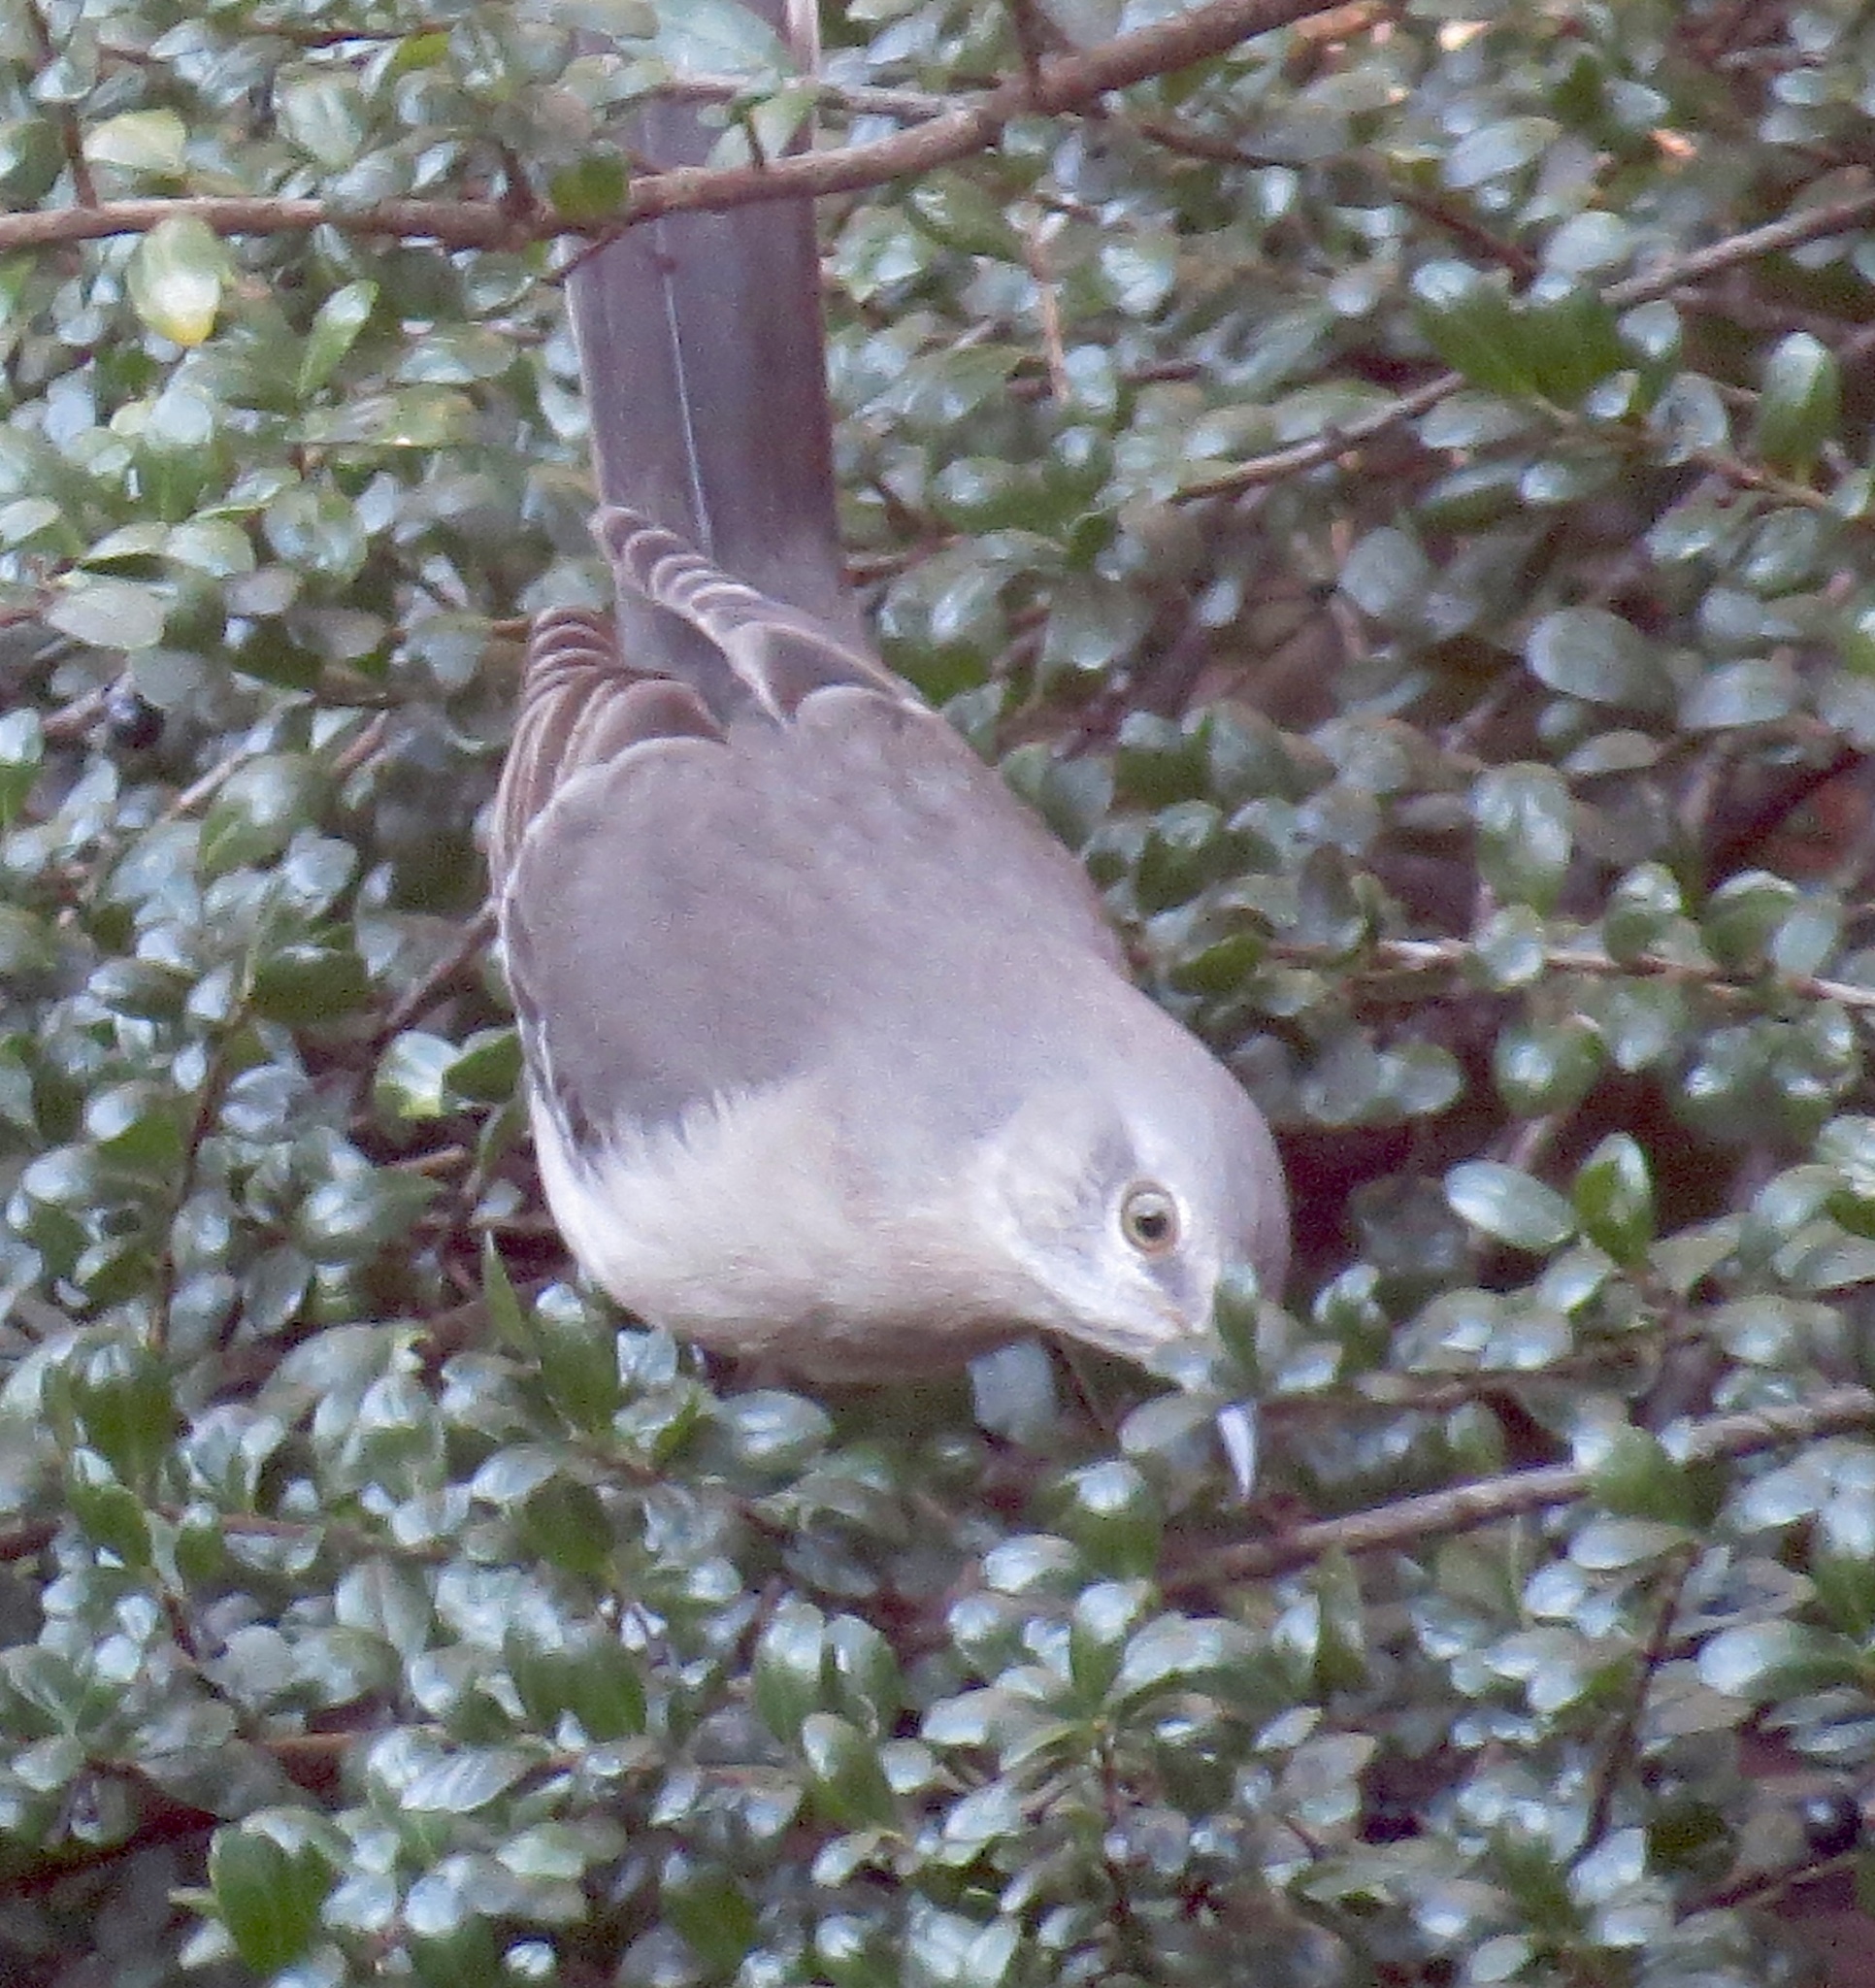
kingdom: Animalia
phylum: Chordata
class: Aves
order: Passeriformes
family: Mimidae
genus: Mimus
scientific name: Mimus polyglottos
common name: Northern mockingbird
